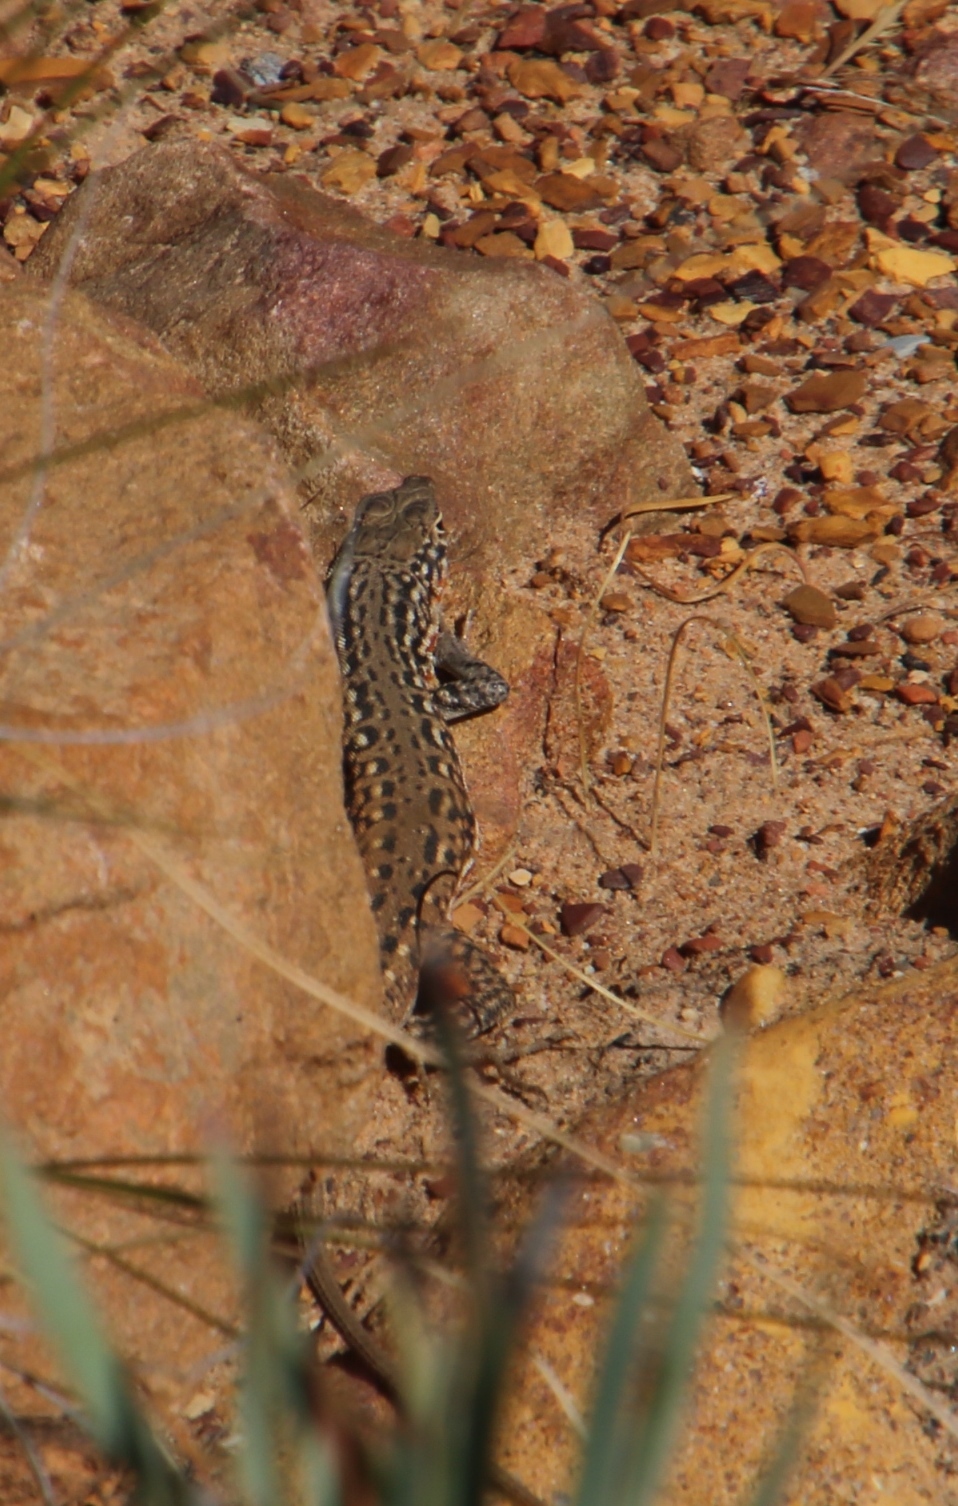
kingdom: Animalia
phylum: Chordata
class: Squamata
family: Lacertidae
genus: Pedioplanis
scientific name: Pedioplanis lineoocellata
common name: Spotted sand lizard
